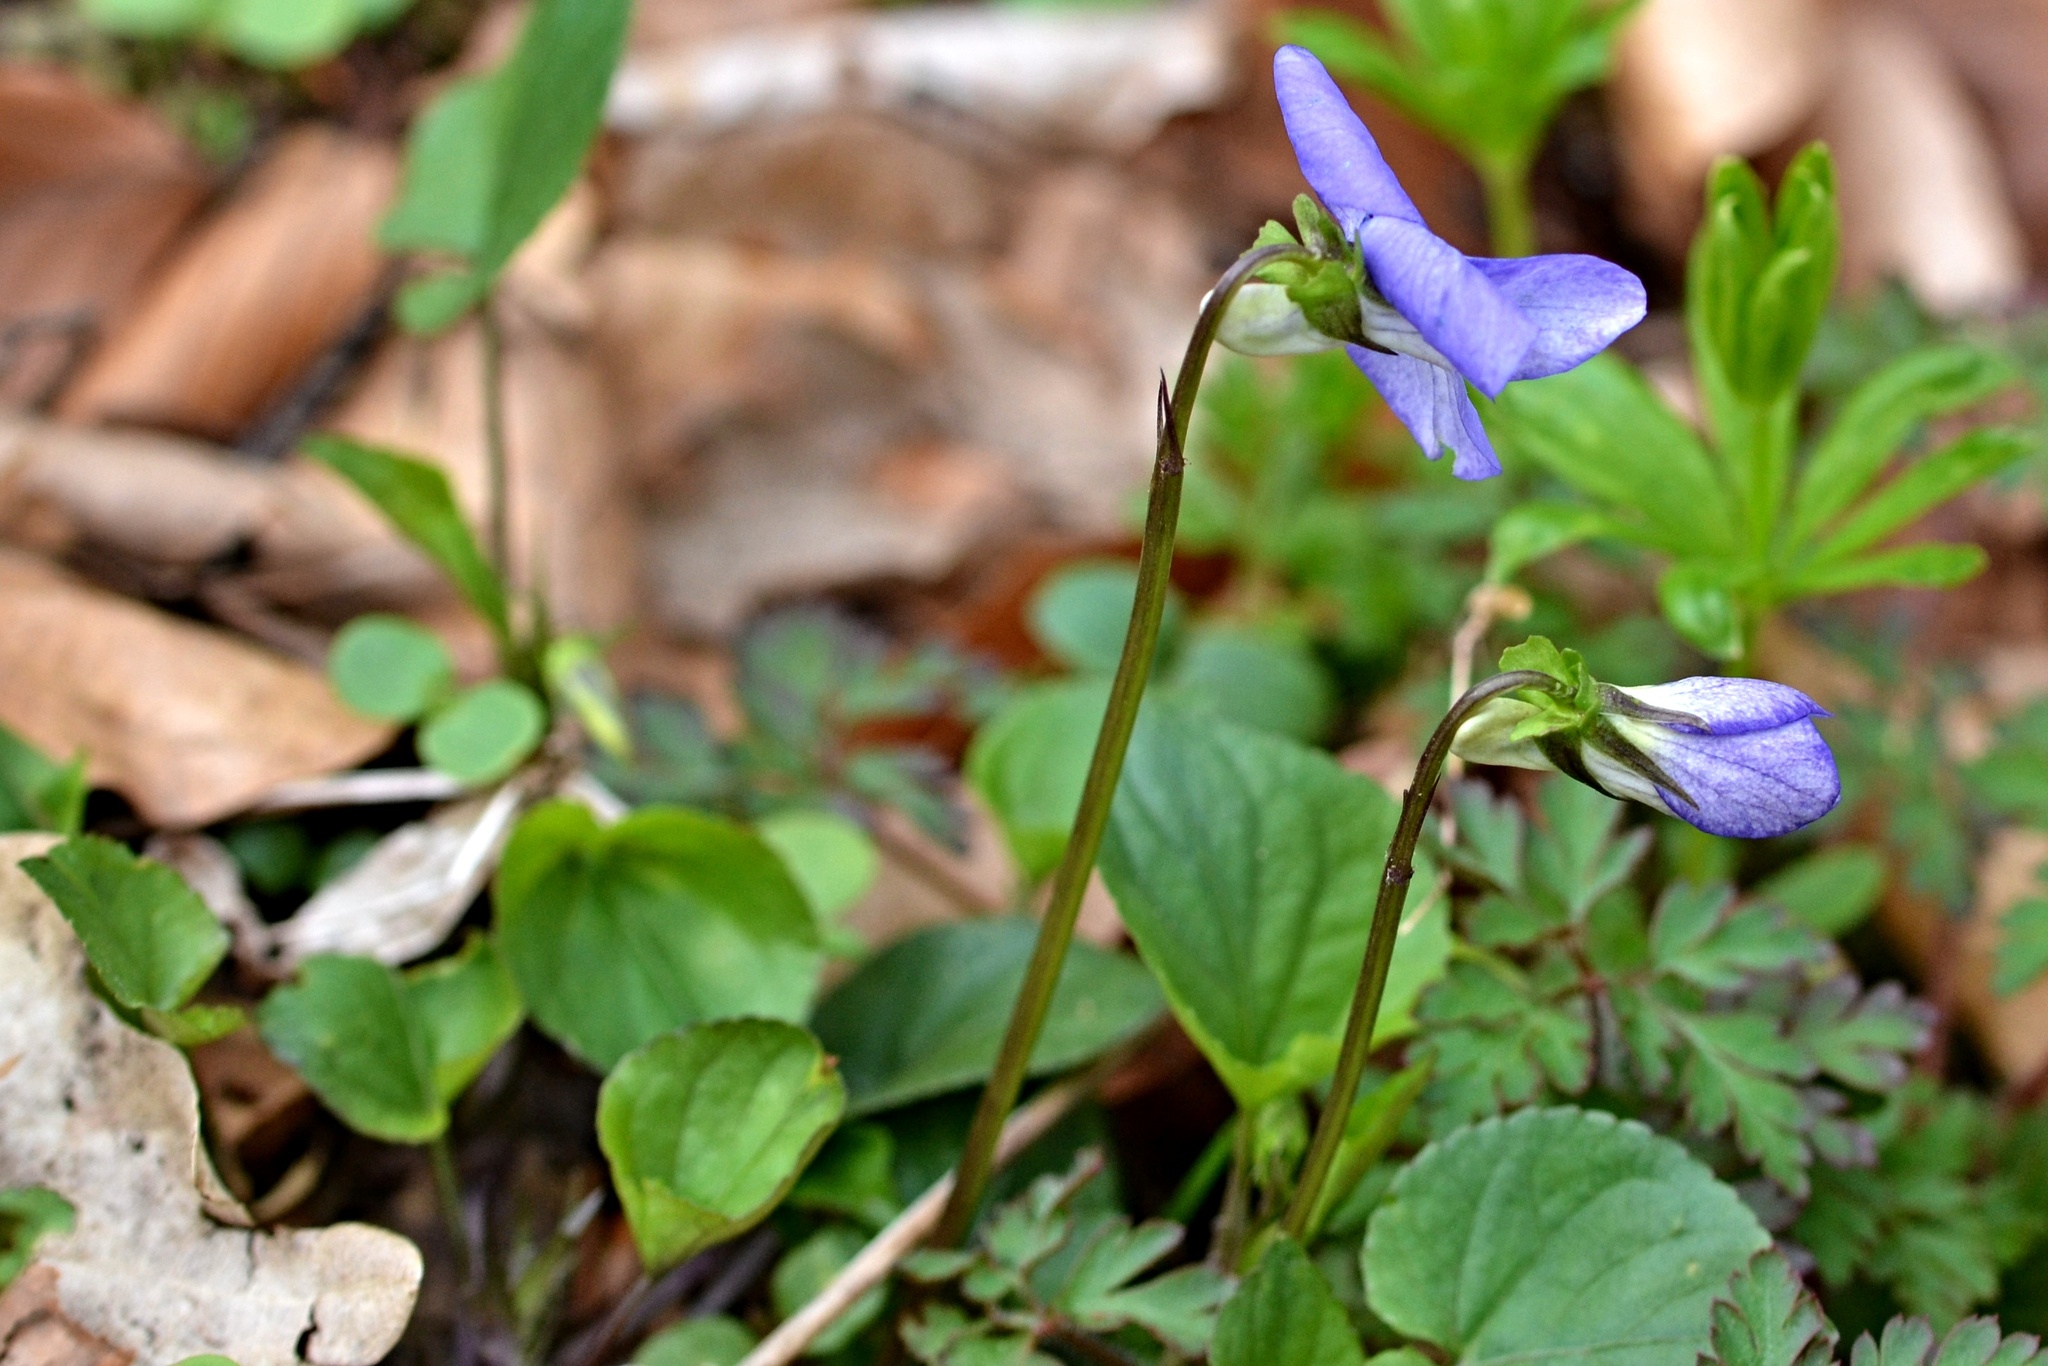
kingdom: Plantae
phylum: Tracheophyta
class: Magnoliopsida
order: Malpighiales
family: Violaceae
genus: Viola
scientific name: Viola riviniana
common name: Common dog-violet
